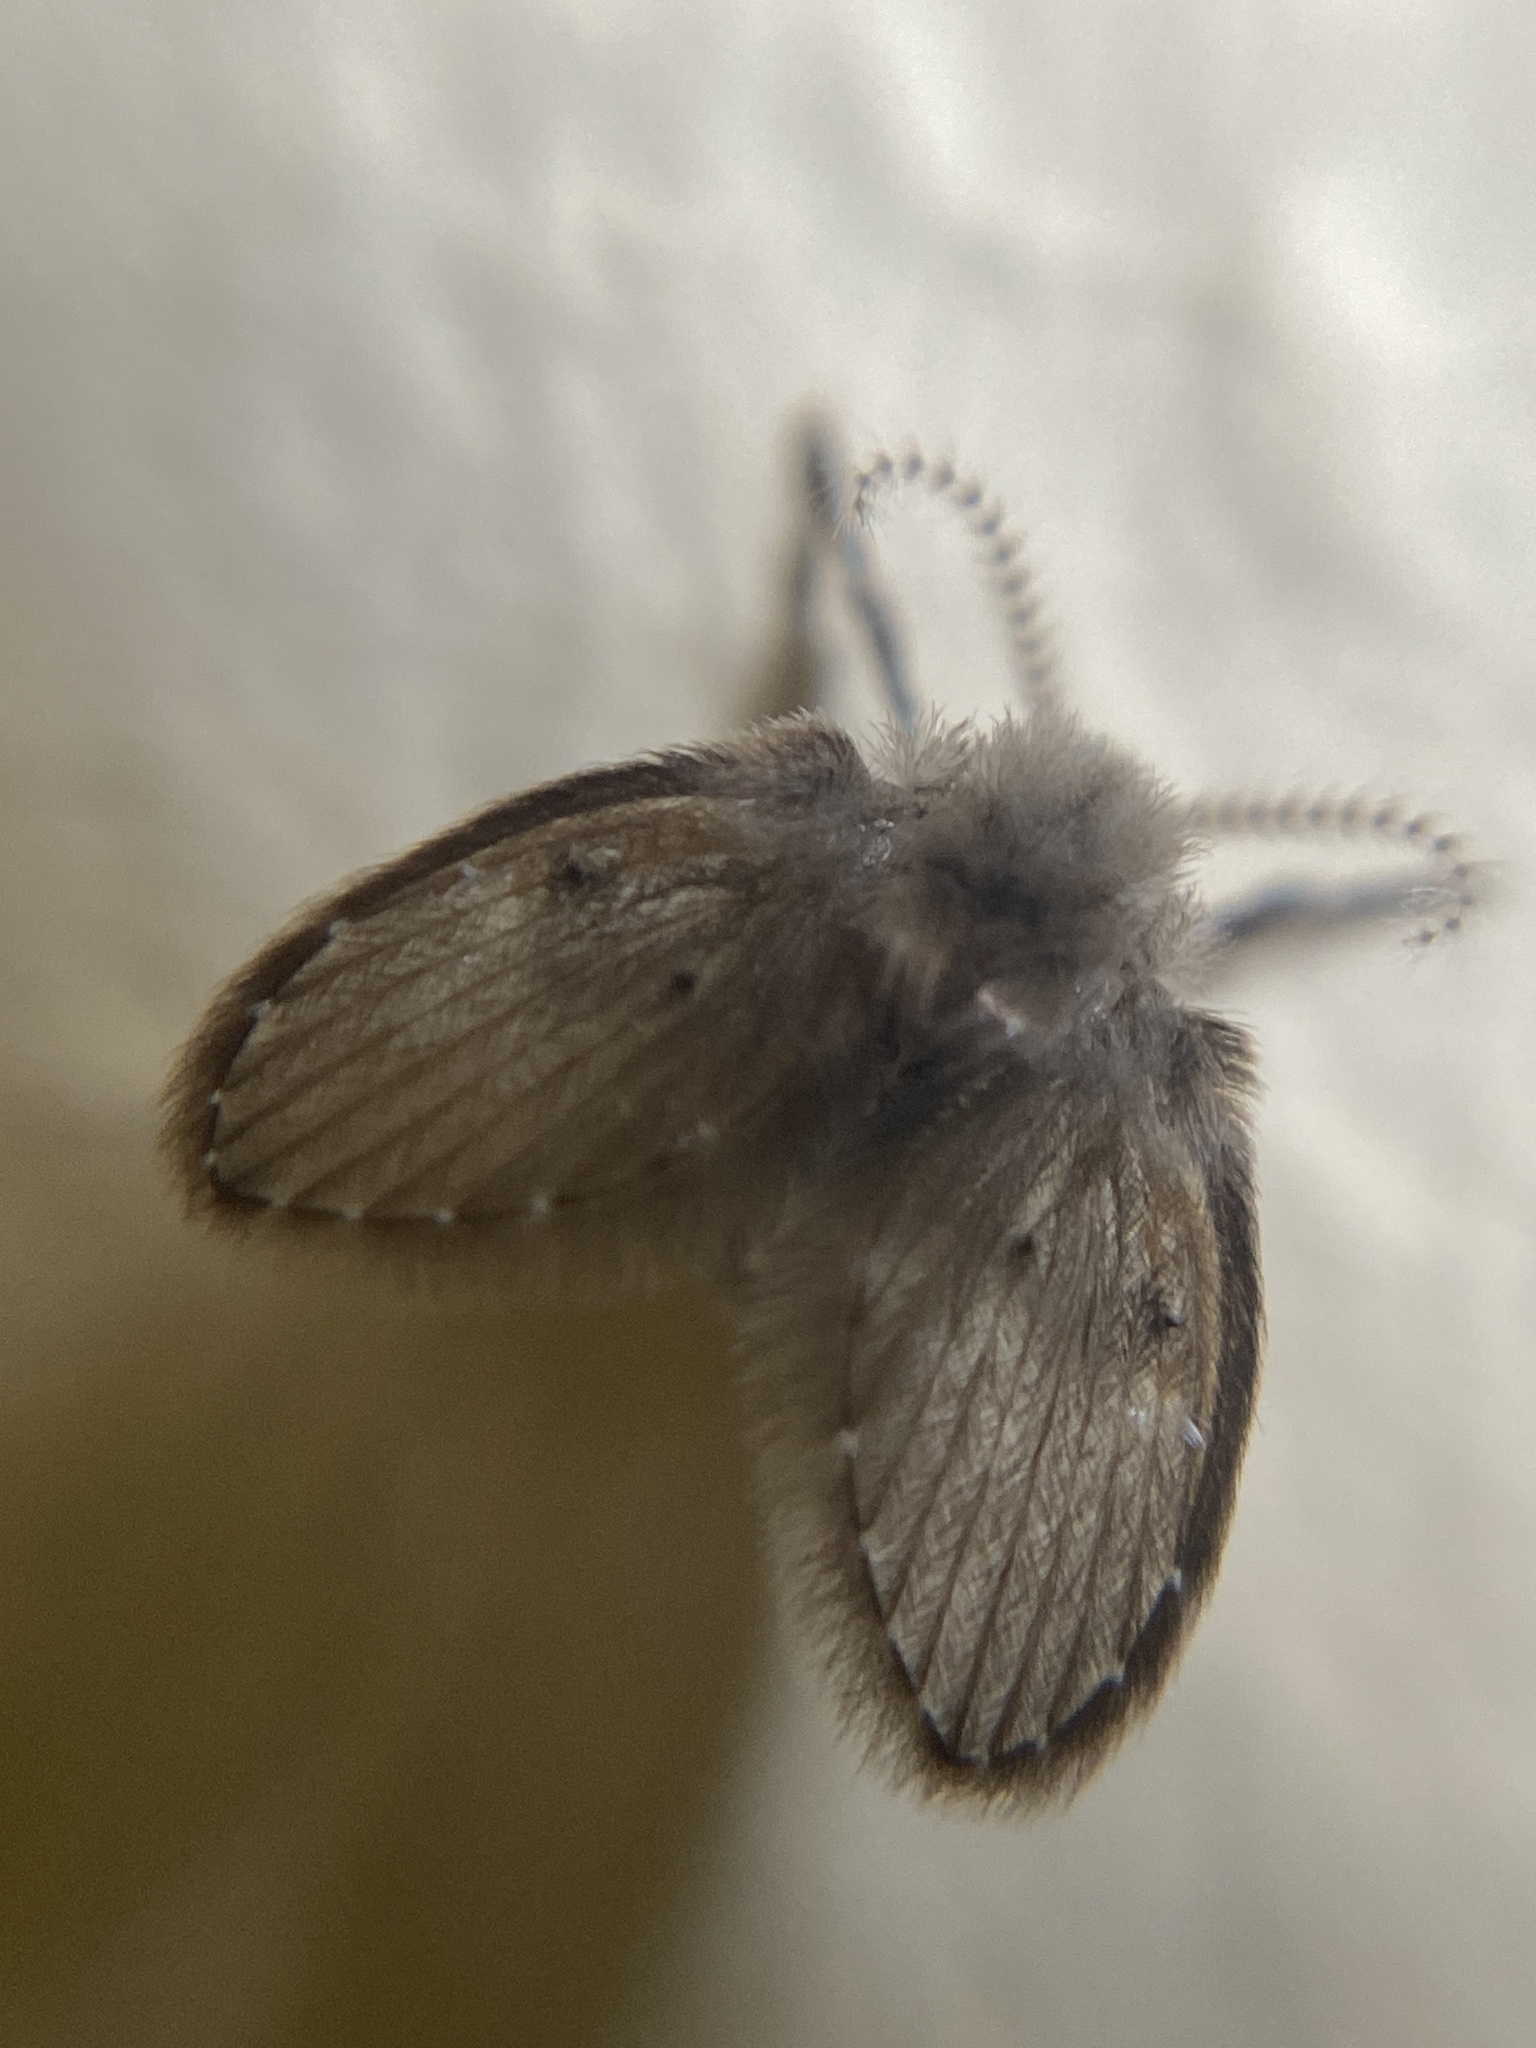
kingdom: Animalia
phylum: Arthropoda
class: Insecta
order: Diptera
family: Psychodidae
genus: Clogmia
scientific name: Clogmia albipunctatus
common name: White-spotted moth fly
